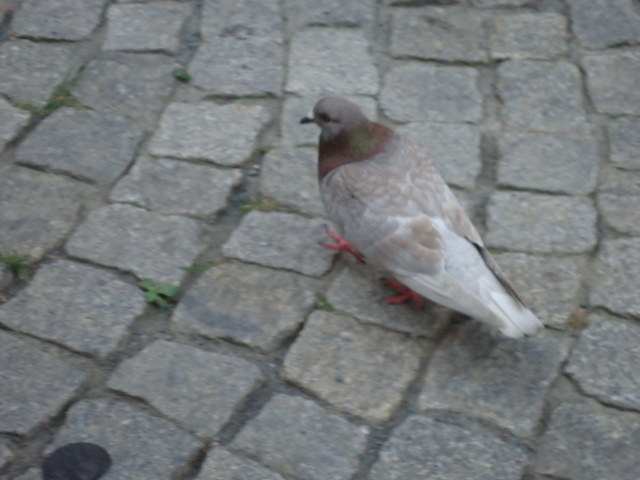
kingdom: Animalia
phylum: Chordata
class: Aves
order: Columbiformes
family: Columbidae
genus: Columba
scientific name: Columba livia
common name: Rock pigeon
